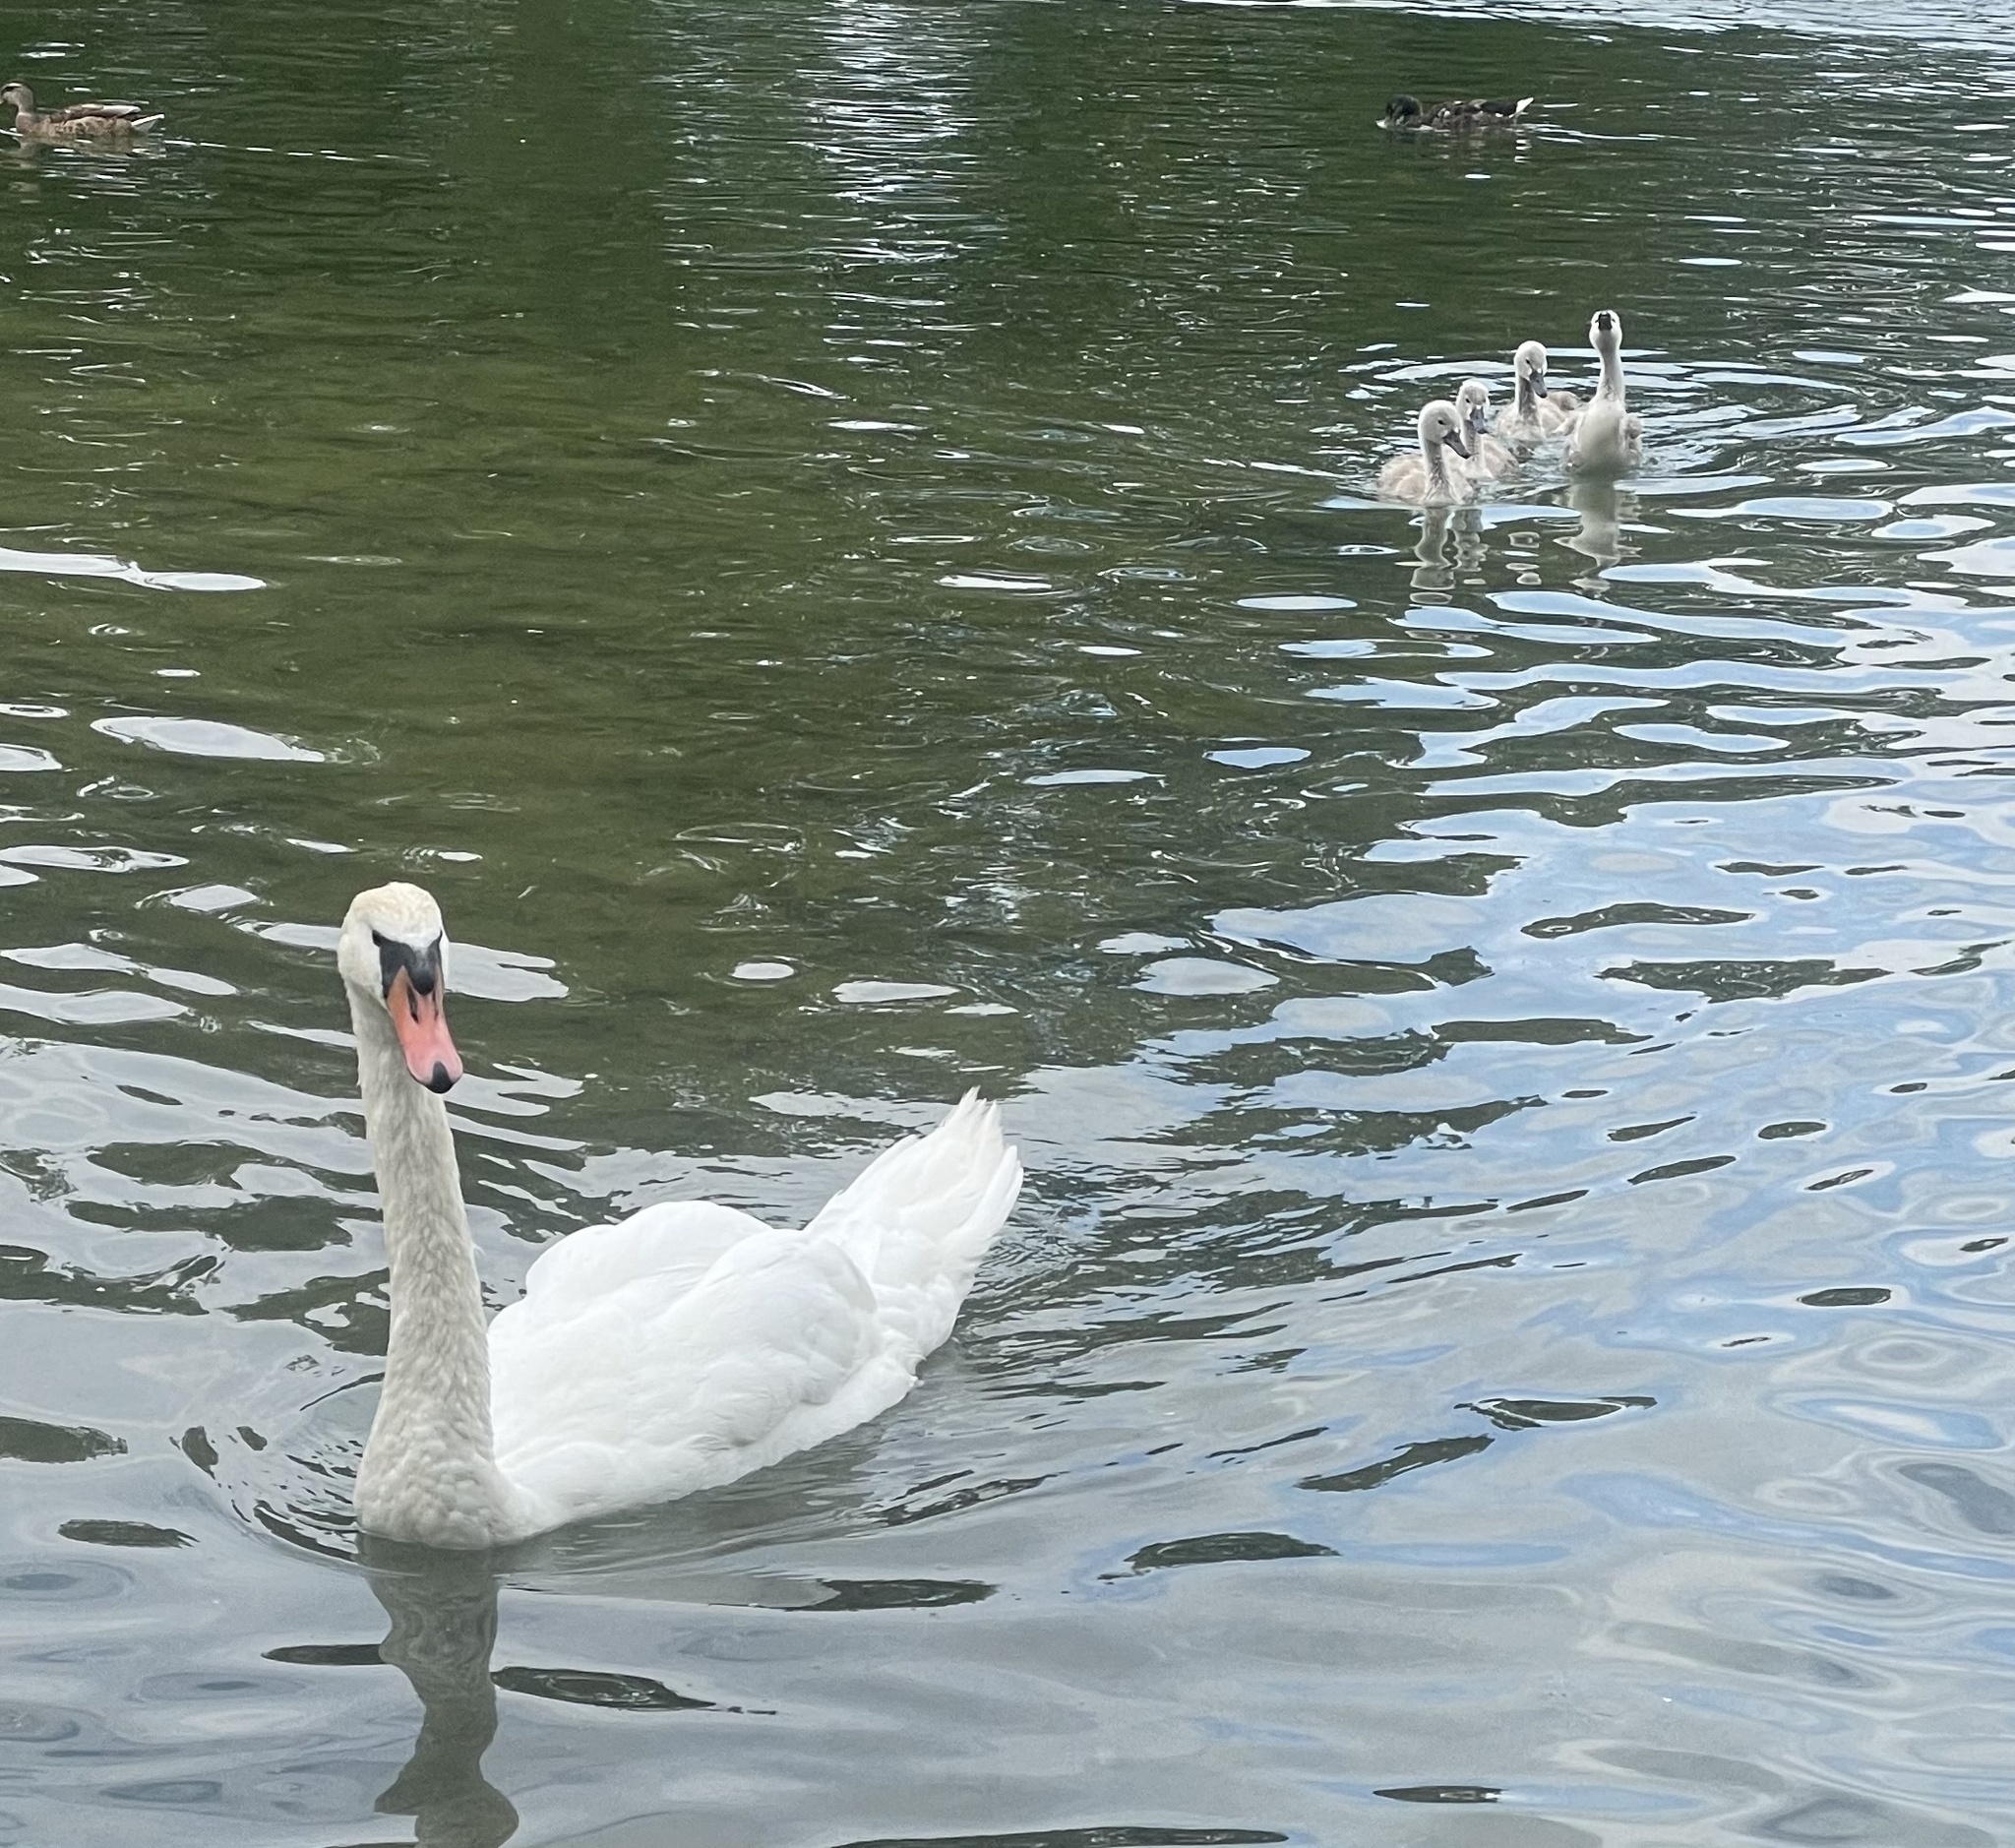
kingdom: Animalia
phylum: Chordata
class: Aves
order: Anseriformes
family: Anatidae
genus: Cygnus
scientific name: Cygnus olor
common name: Mute swan
